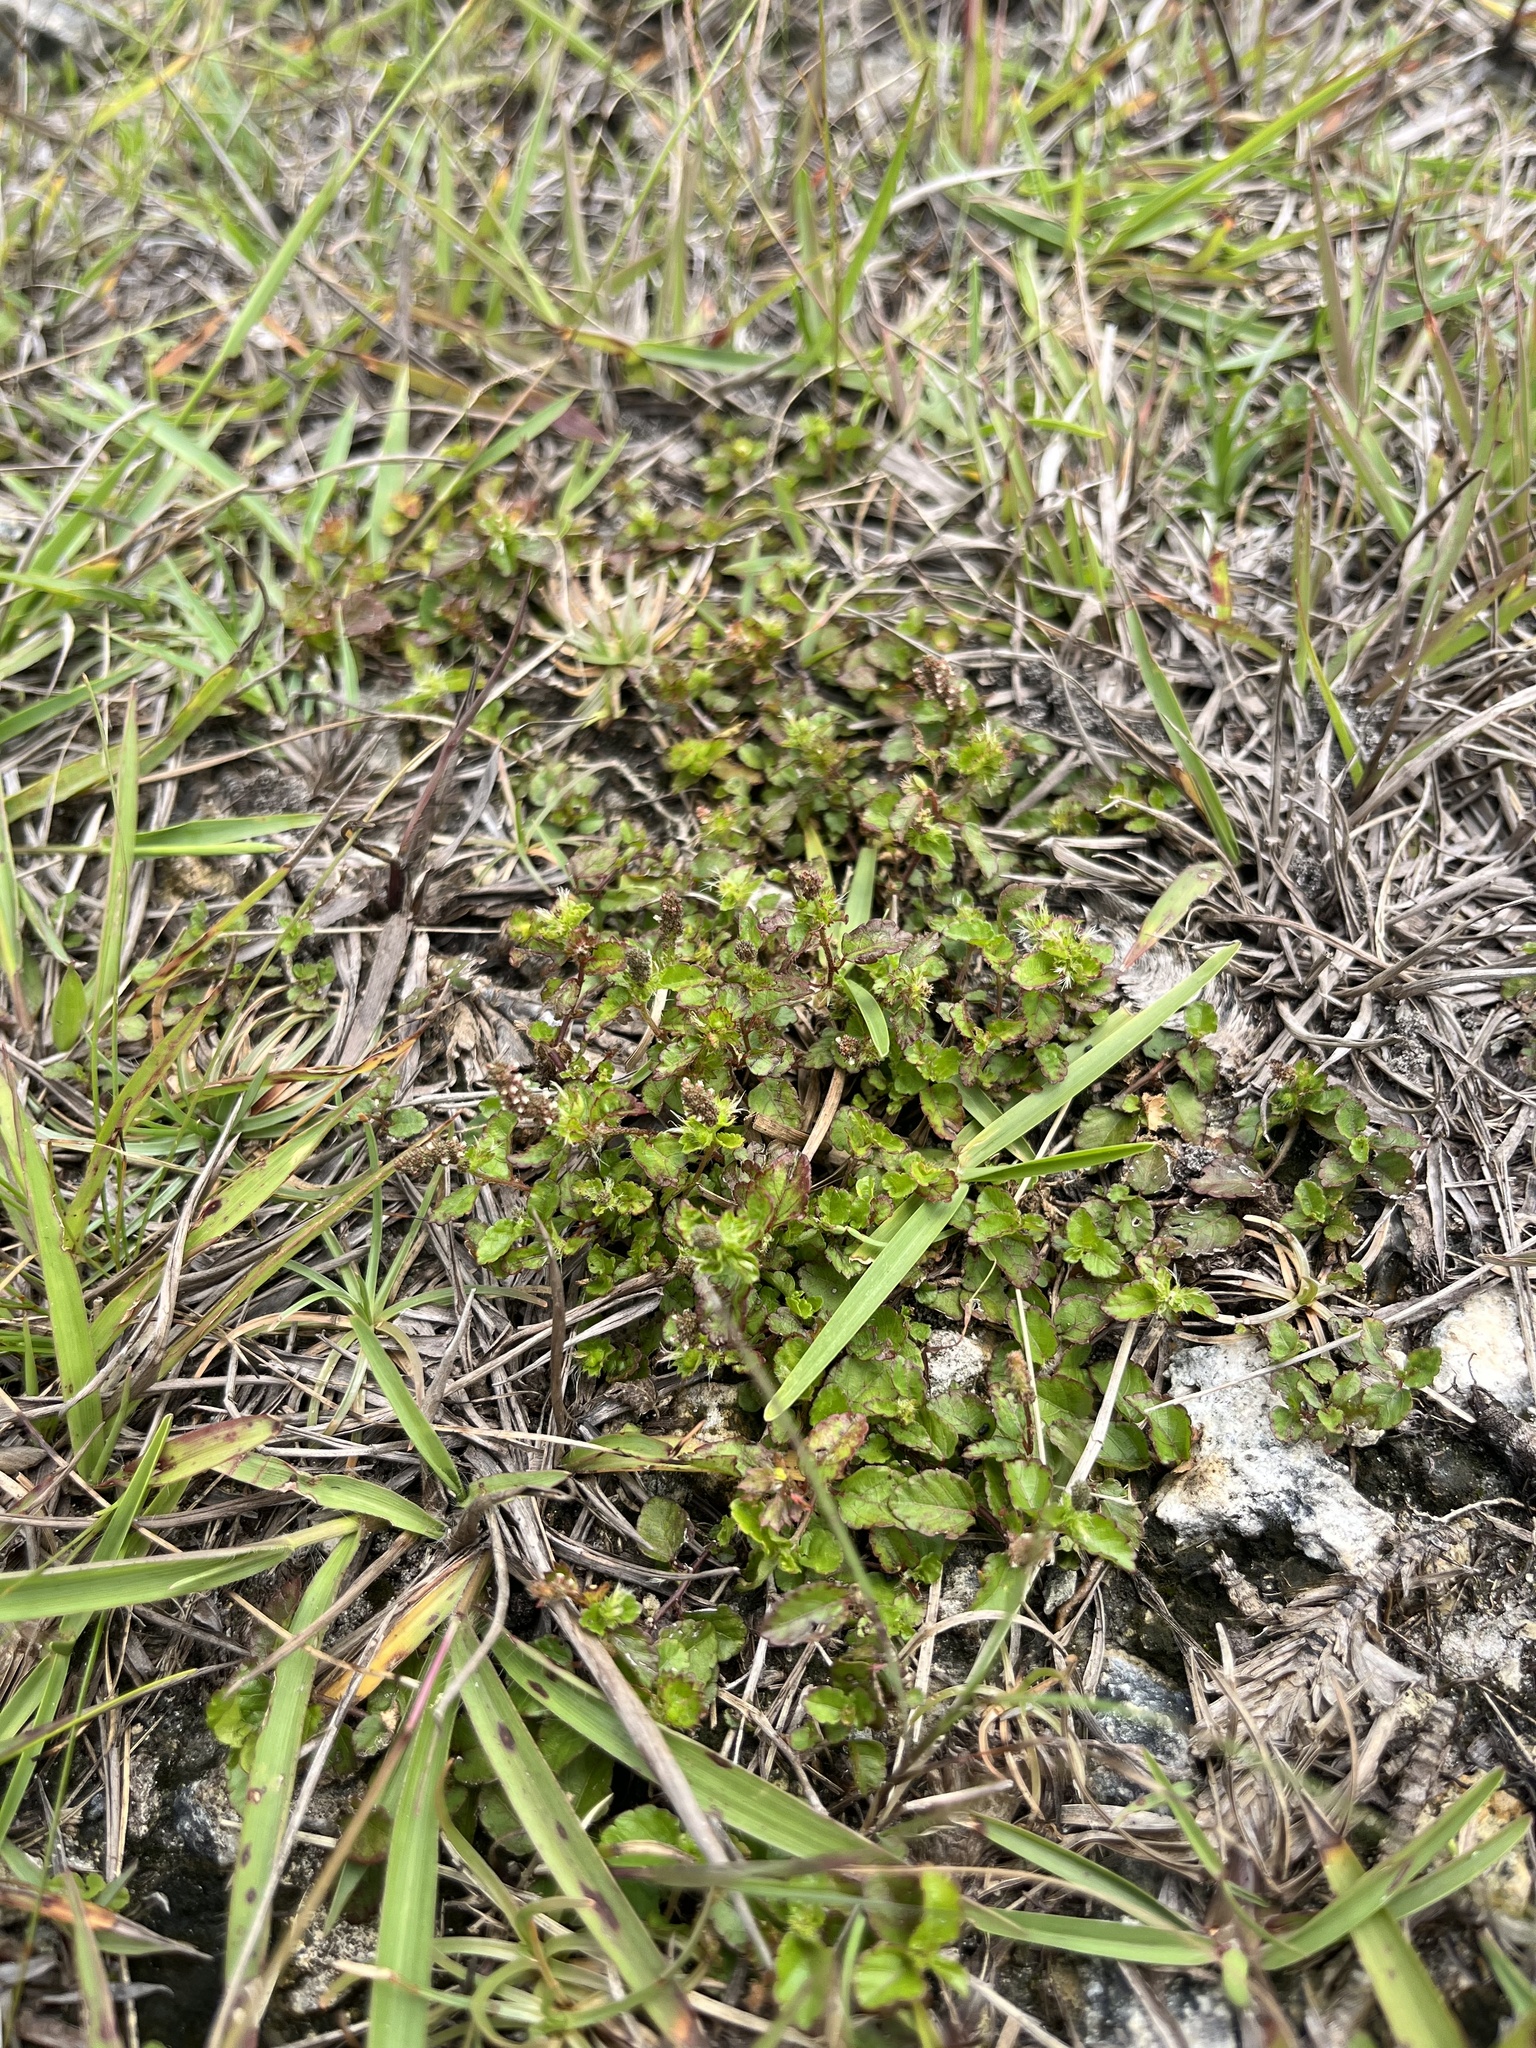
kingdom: Plantae
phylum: Tracheophyta
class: Magnoliopsida
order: Malpighiales
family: Euphorbiaceae
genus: Acalypha
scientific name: Acalypha chamaedrifolia
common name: Bastard copperleaf
